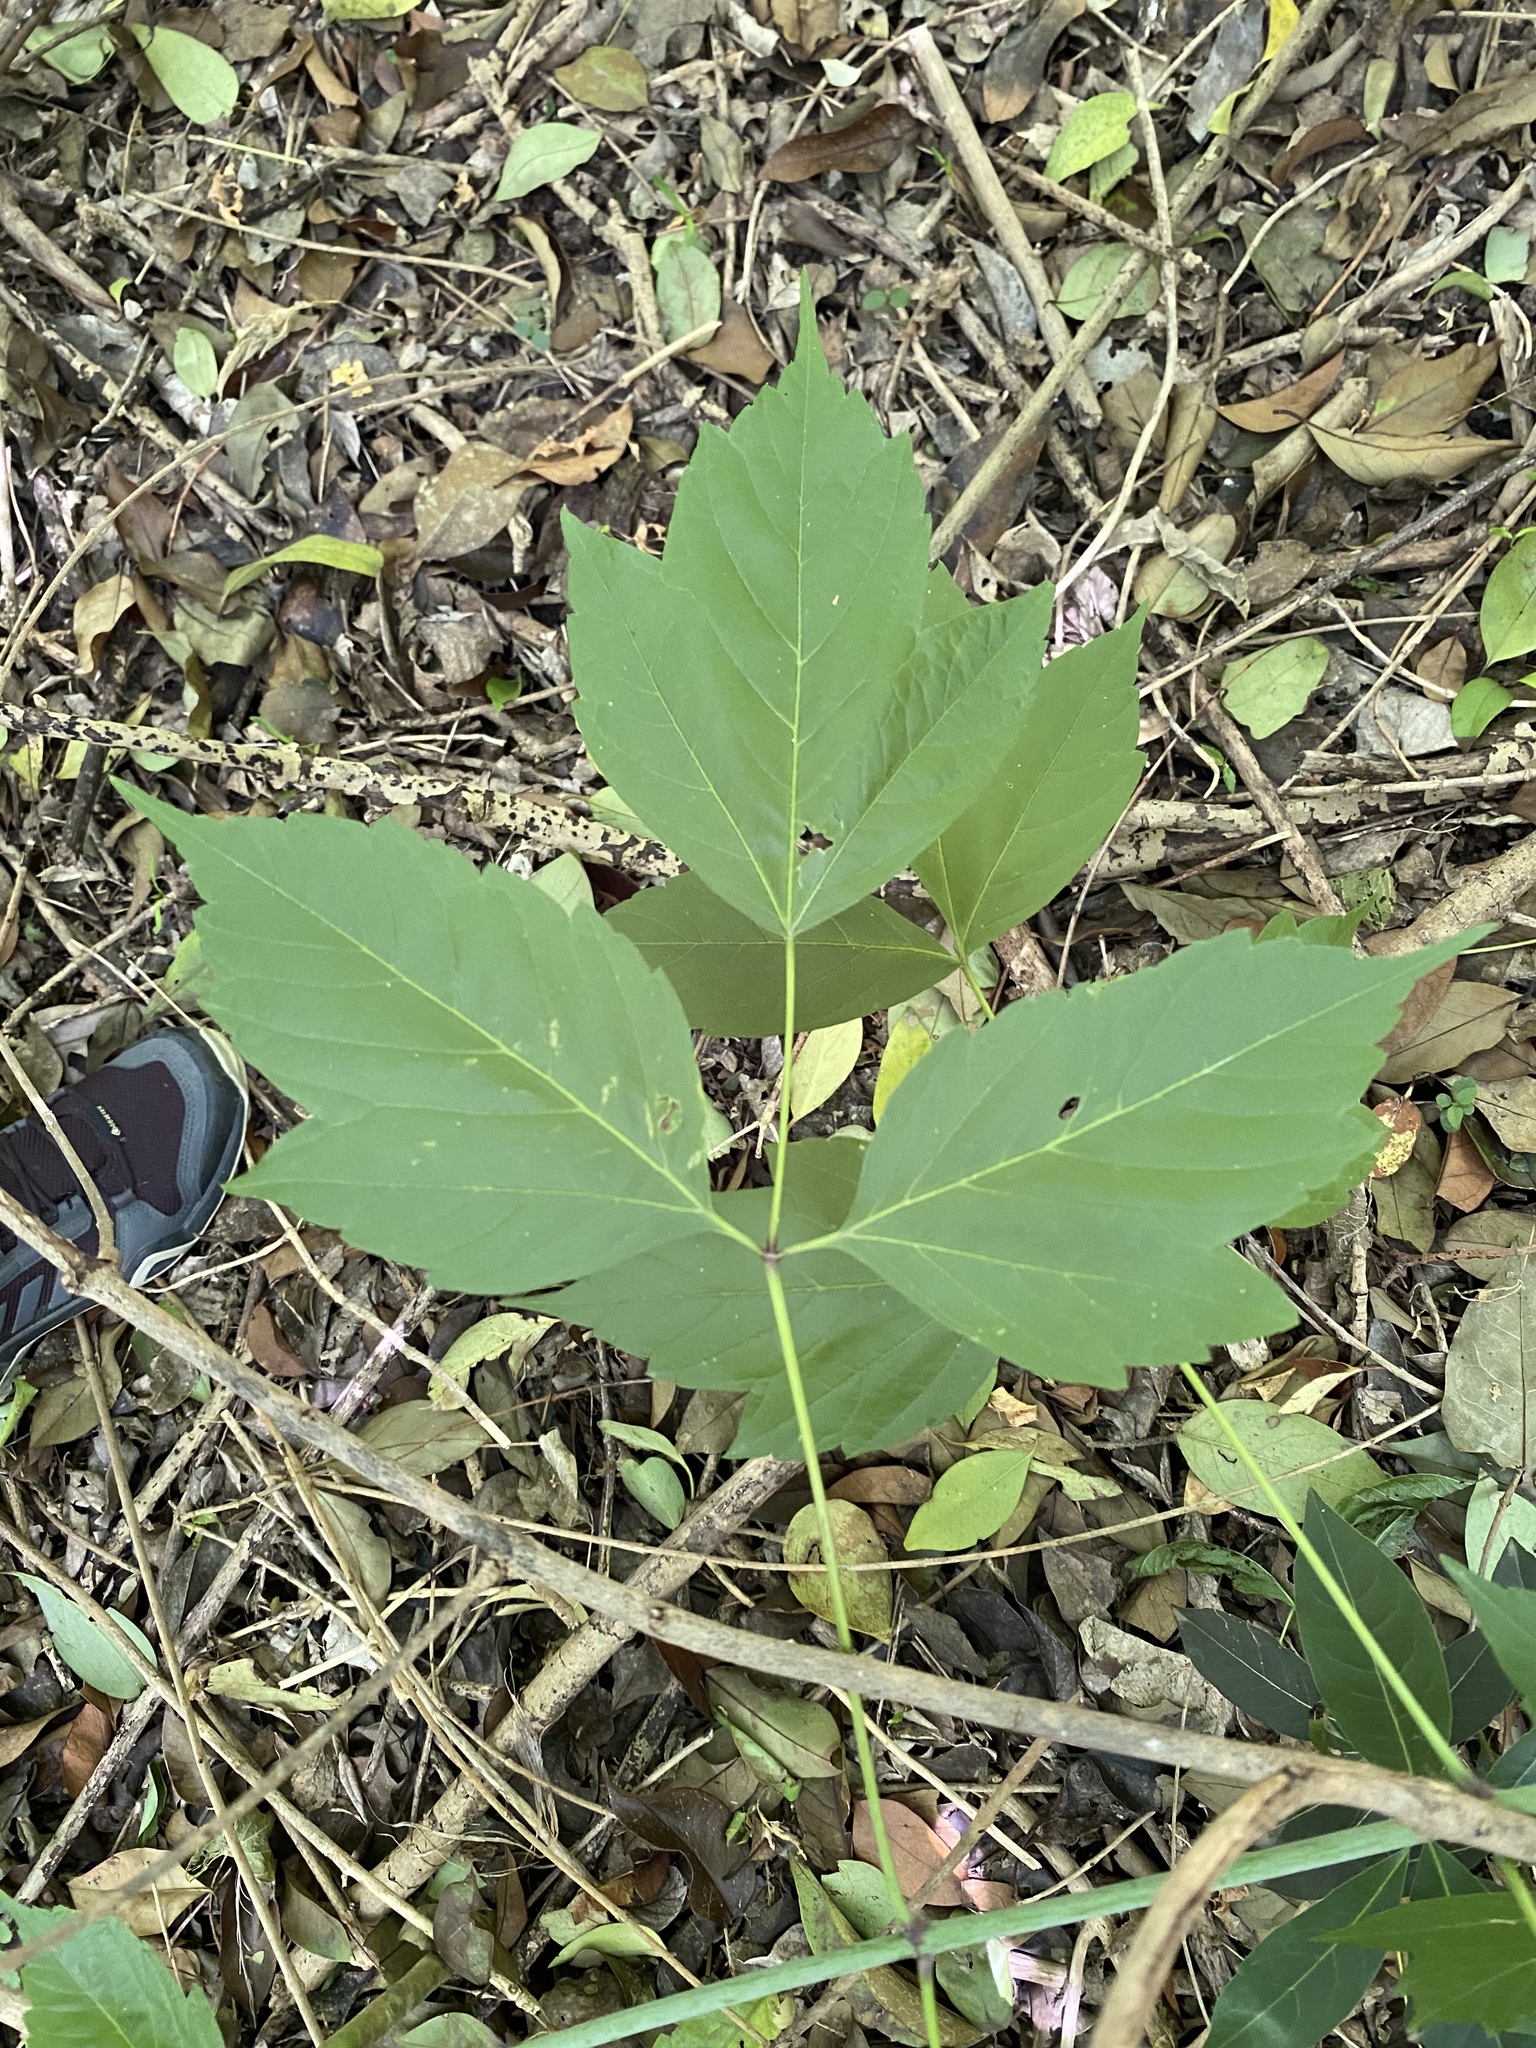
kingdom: Plantae
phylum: Tracheophyta
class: Magnoliopsida
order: Sapindales
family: Sapindaceae
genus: Acer
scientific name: Acer negundo
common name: Ashleaf maple
